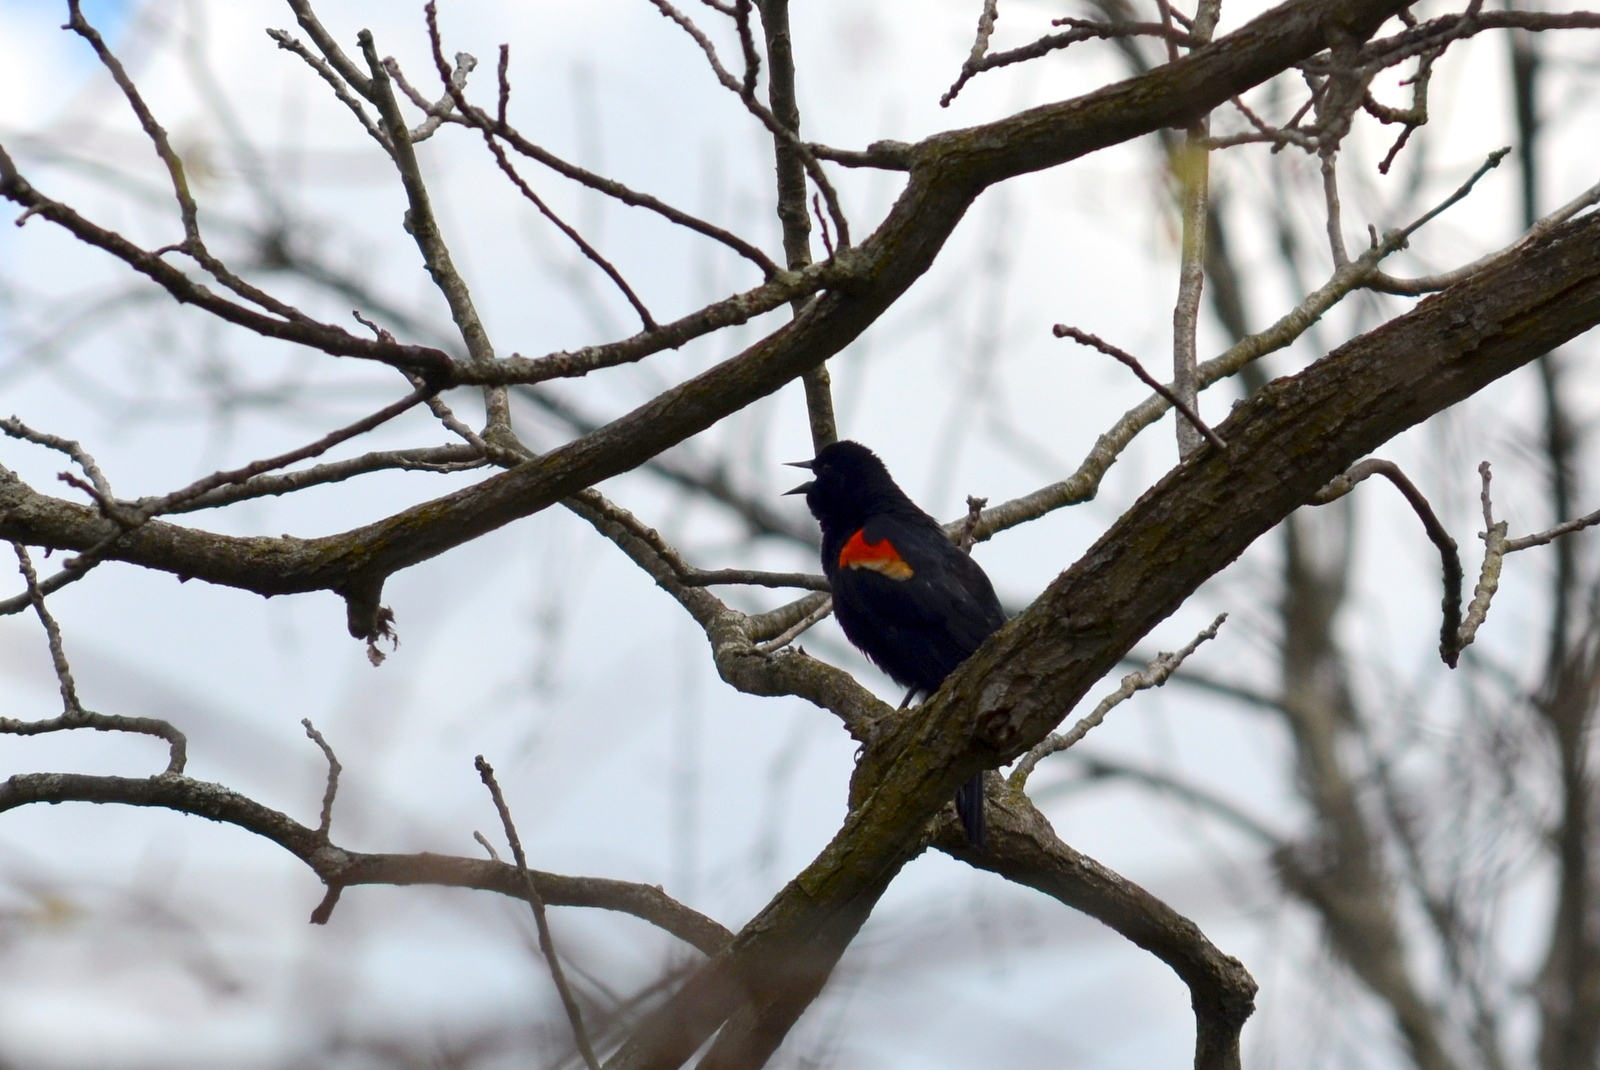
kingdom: Animalia
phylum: Chordata
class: Aves
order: Passeriformes
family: Icteridae
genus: Agelaius
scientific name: Agelaius phoeniceus
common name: Red-winged blackbird
